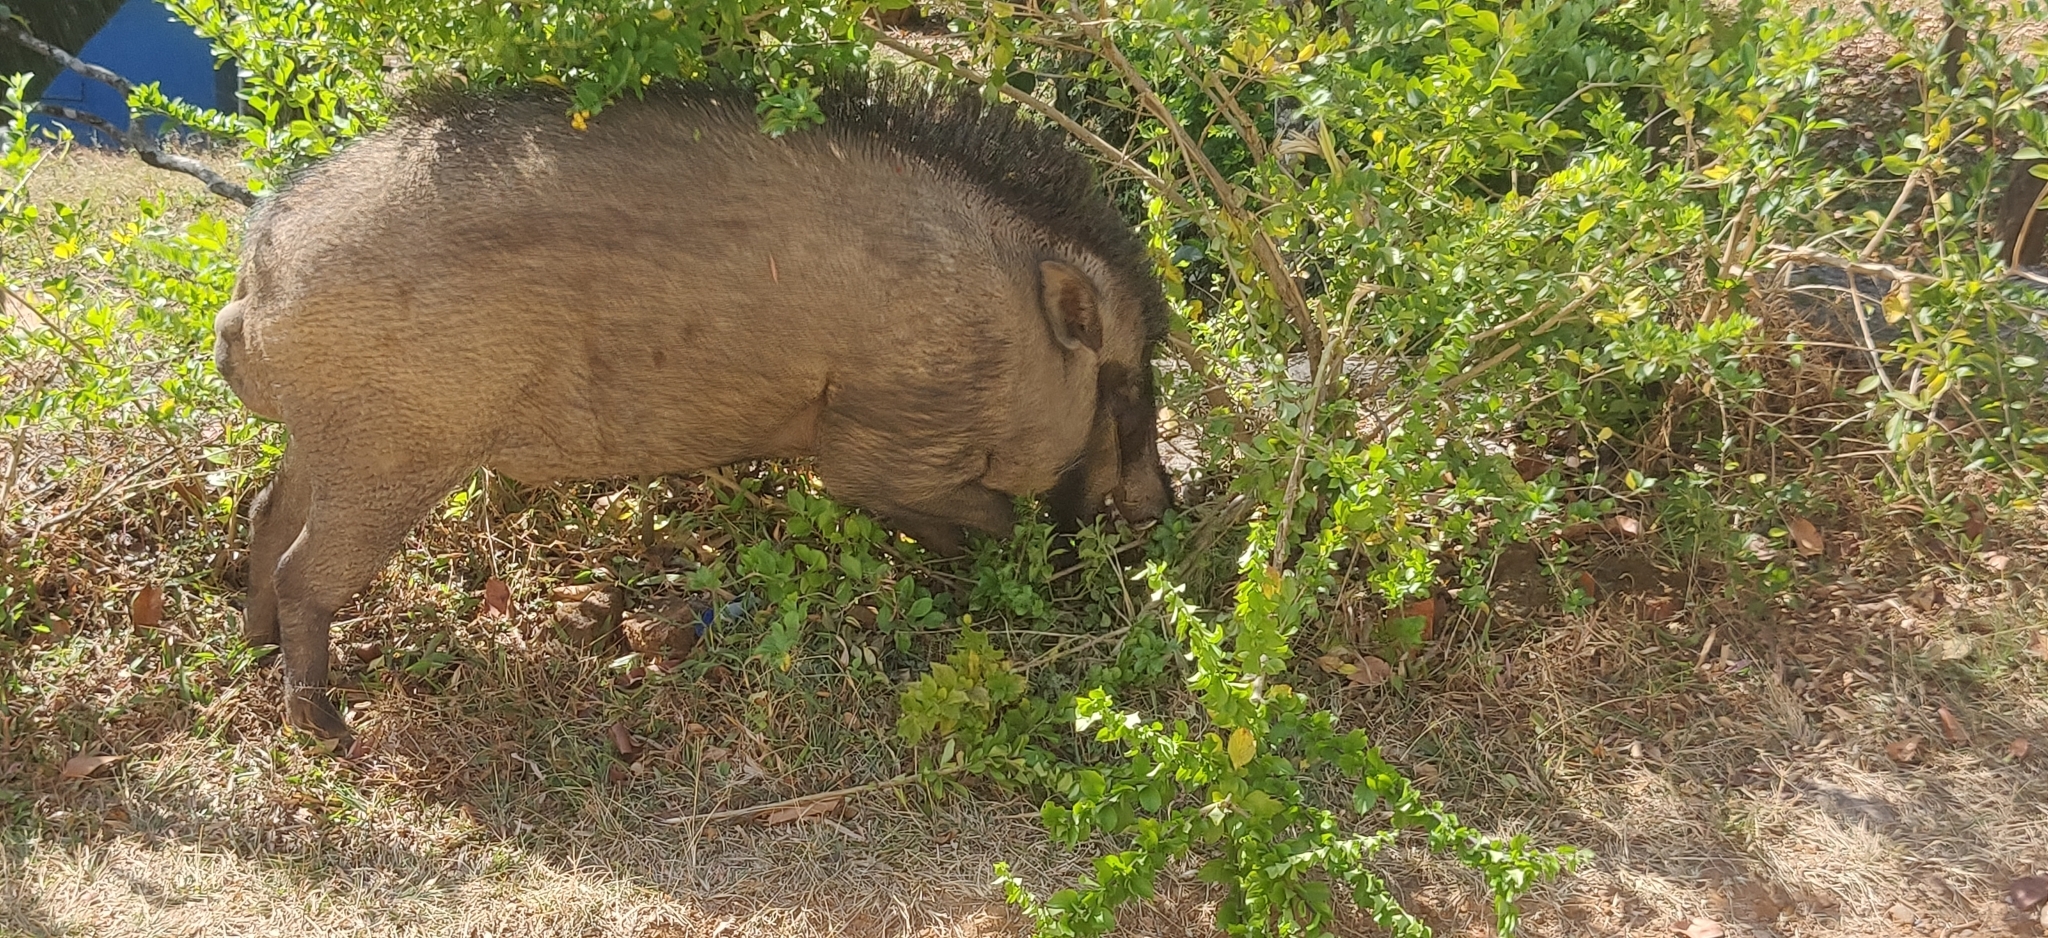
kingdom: Animalia
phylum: Chordata
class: Mammalia
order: Artiodactyla
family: Suidae
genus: Sus
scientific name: Sus scrofa
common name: Wild boar
